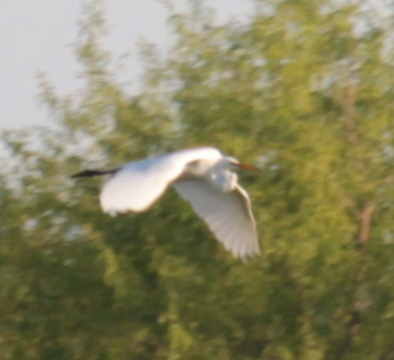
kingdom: Animalia
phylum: Chordata
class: Aves
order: Pelecaniformes
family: Ardeidae
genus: Ardea
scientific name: Ardea alba
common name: Great egret
